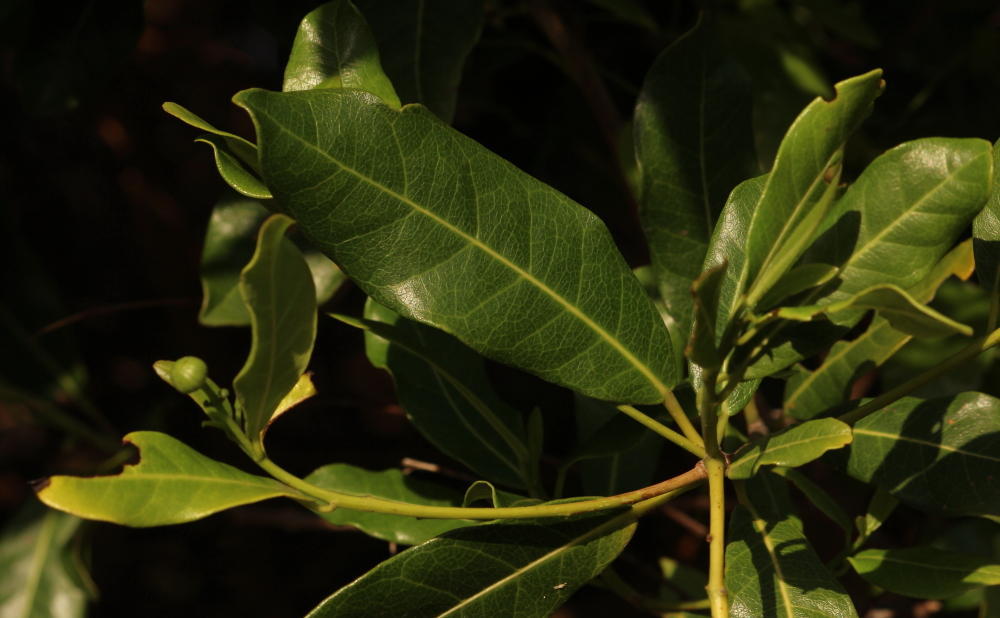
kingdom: Plantae
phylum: Tracheophyta
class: Magnoliopsida
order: Malpighiales
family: Achariaceae
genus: Xylotheca
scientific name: Xylotheca kraussiana
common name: African dog rose
